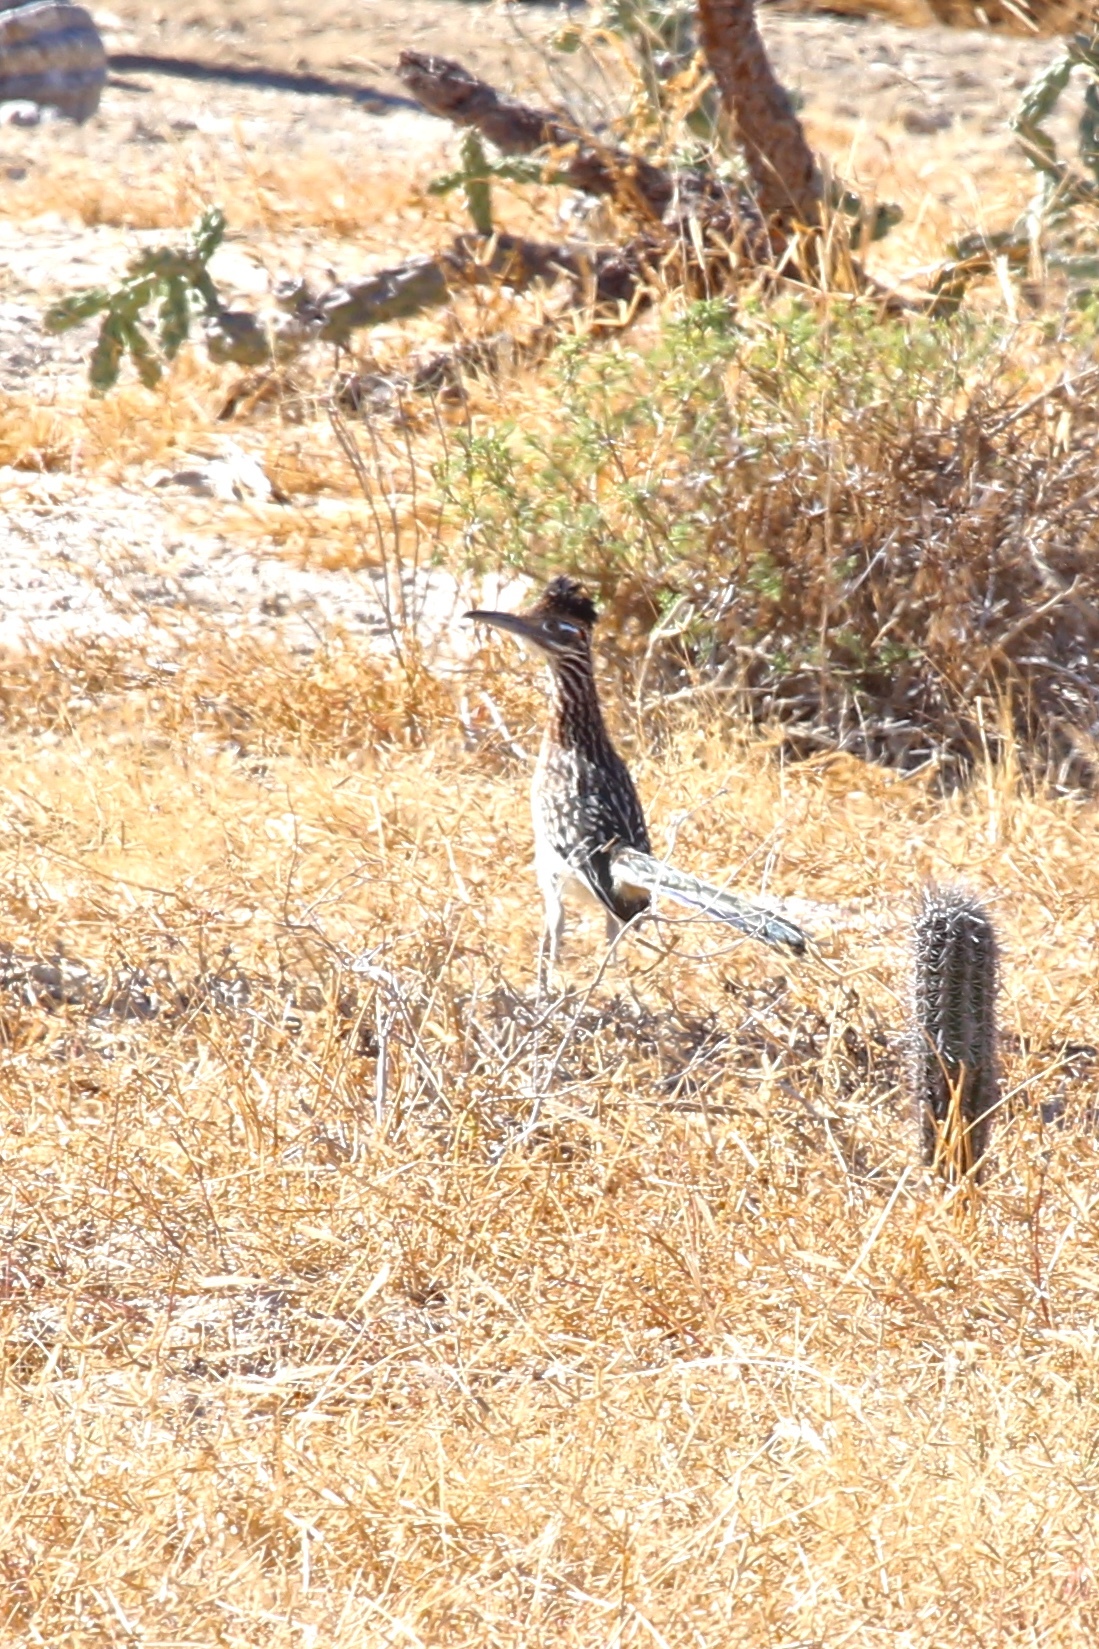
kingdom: Animalia
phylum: Chordata
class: Aves
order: Cuculiformes
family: Cuculidae
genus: Geococcyx
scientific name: Geococcyx californianus
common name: Greater roadrunner
